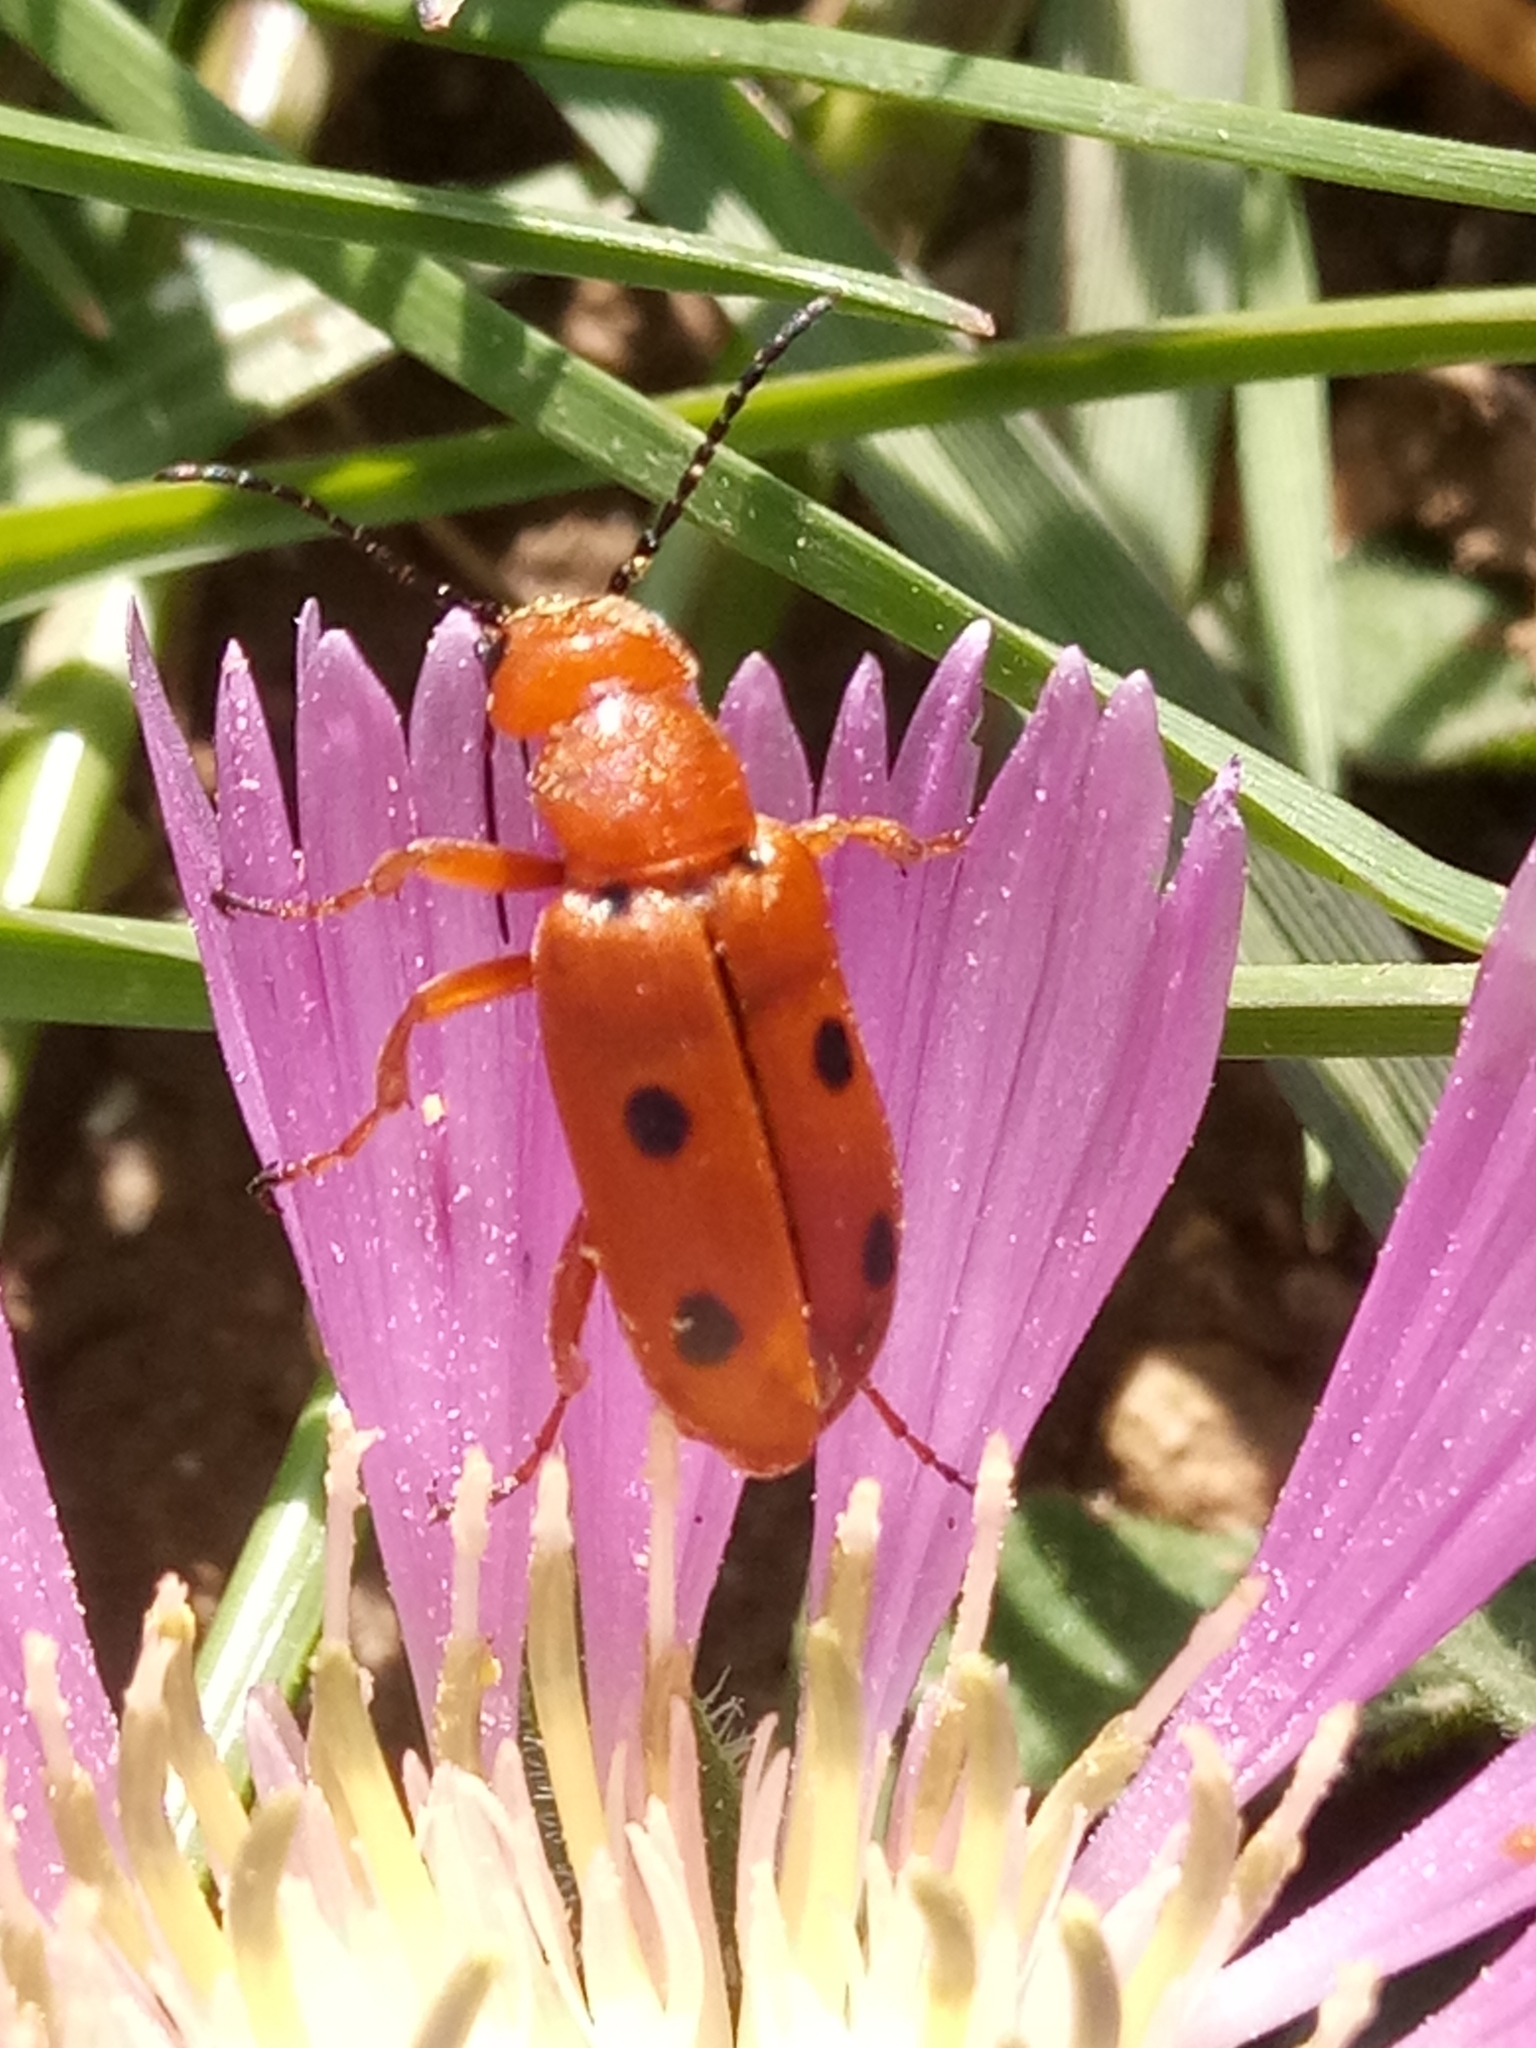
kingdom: Animalia
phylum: Arthropoda
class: Insecta
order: Coleoptera
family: Meloidae
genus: Leptopalpus
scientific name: Leptopalpus rostratus
